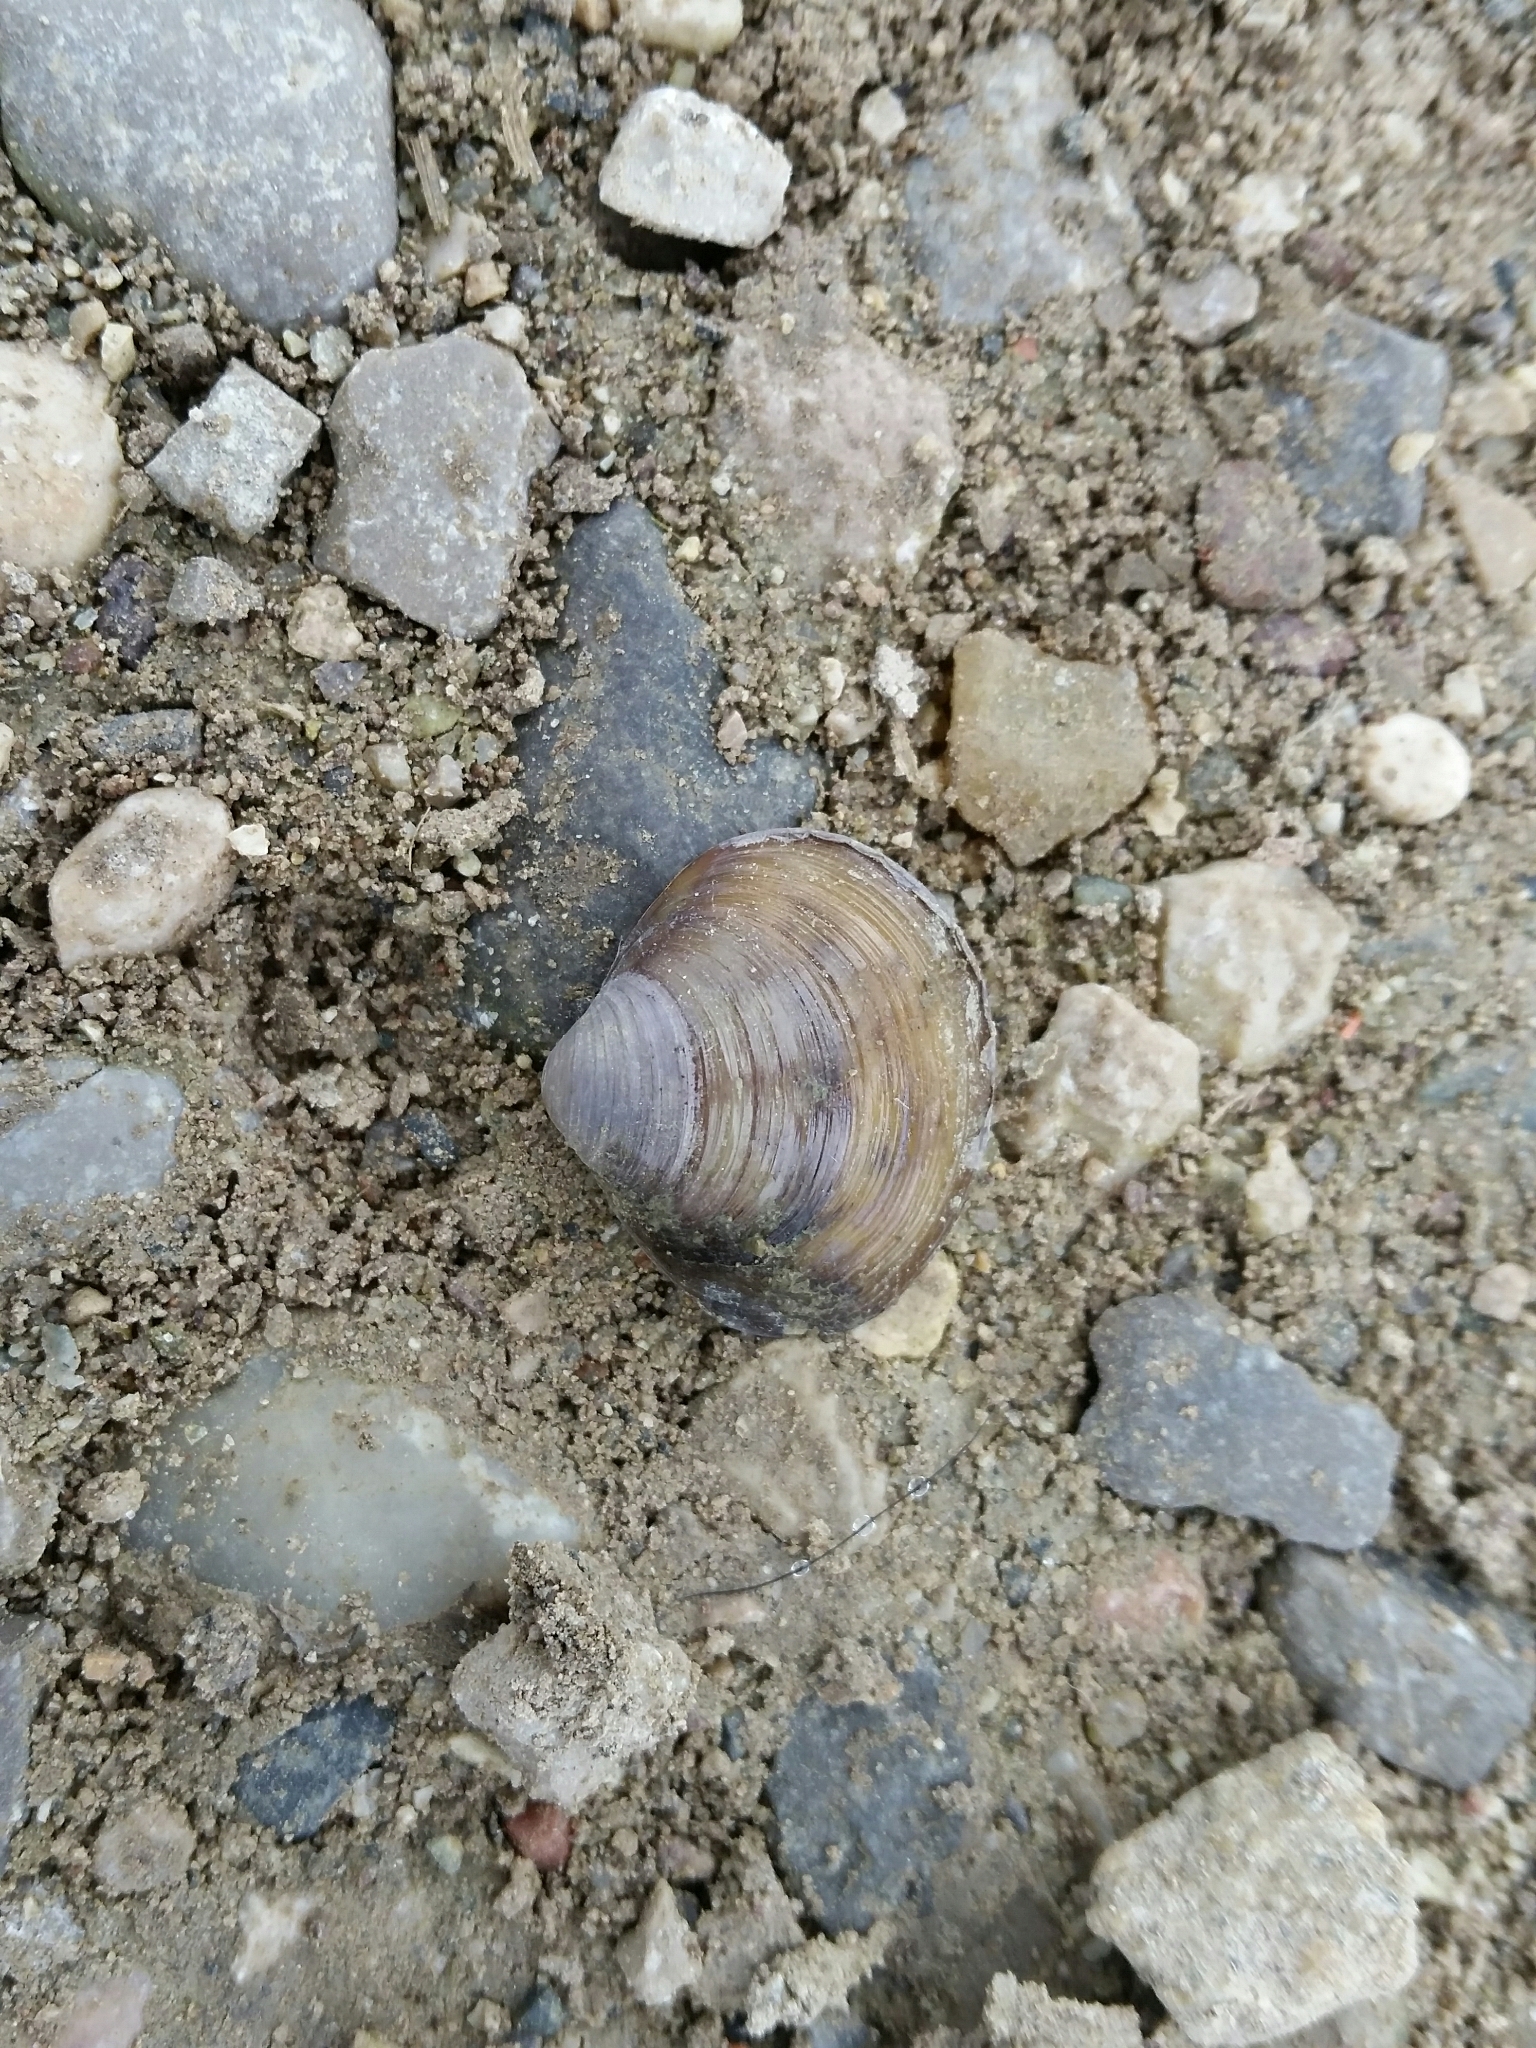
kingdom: Animalia
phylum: Mollusca
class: Bivalvia
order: Venerida
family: Cyrenidae
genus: Corbicula
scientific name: Corbicula fluminea
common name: Asian clam
